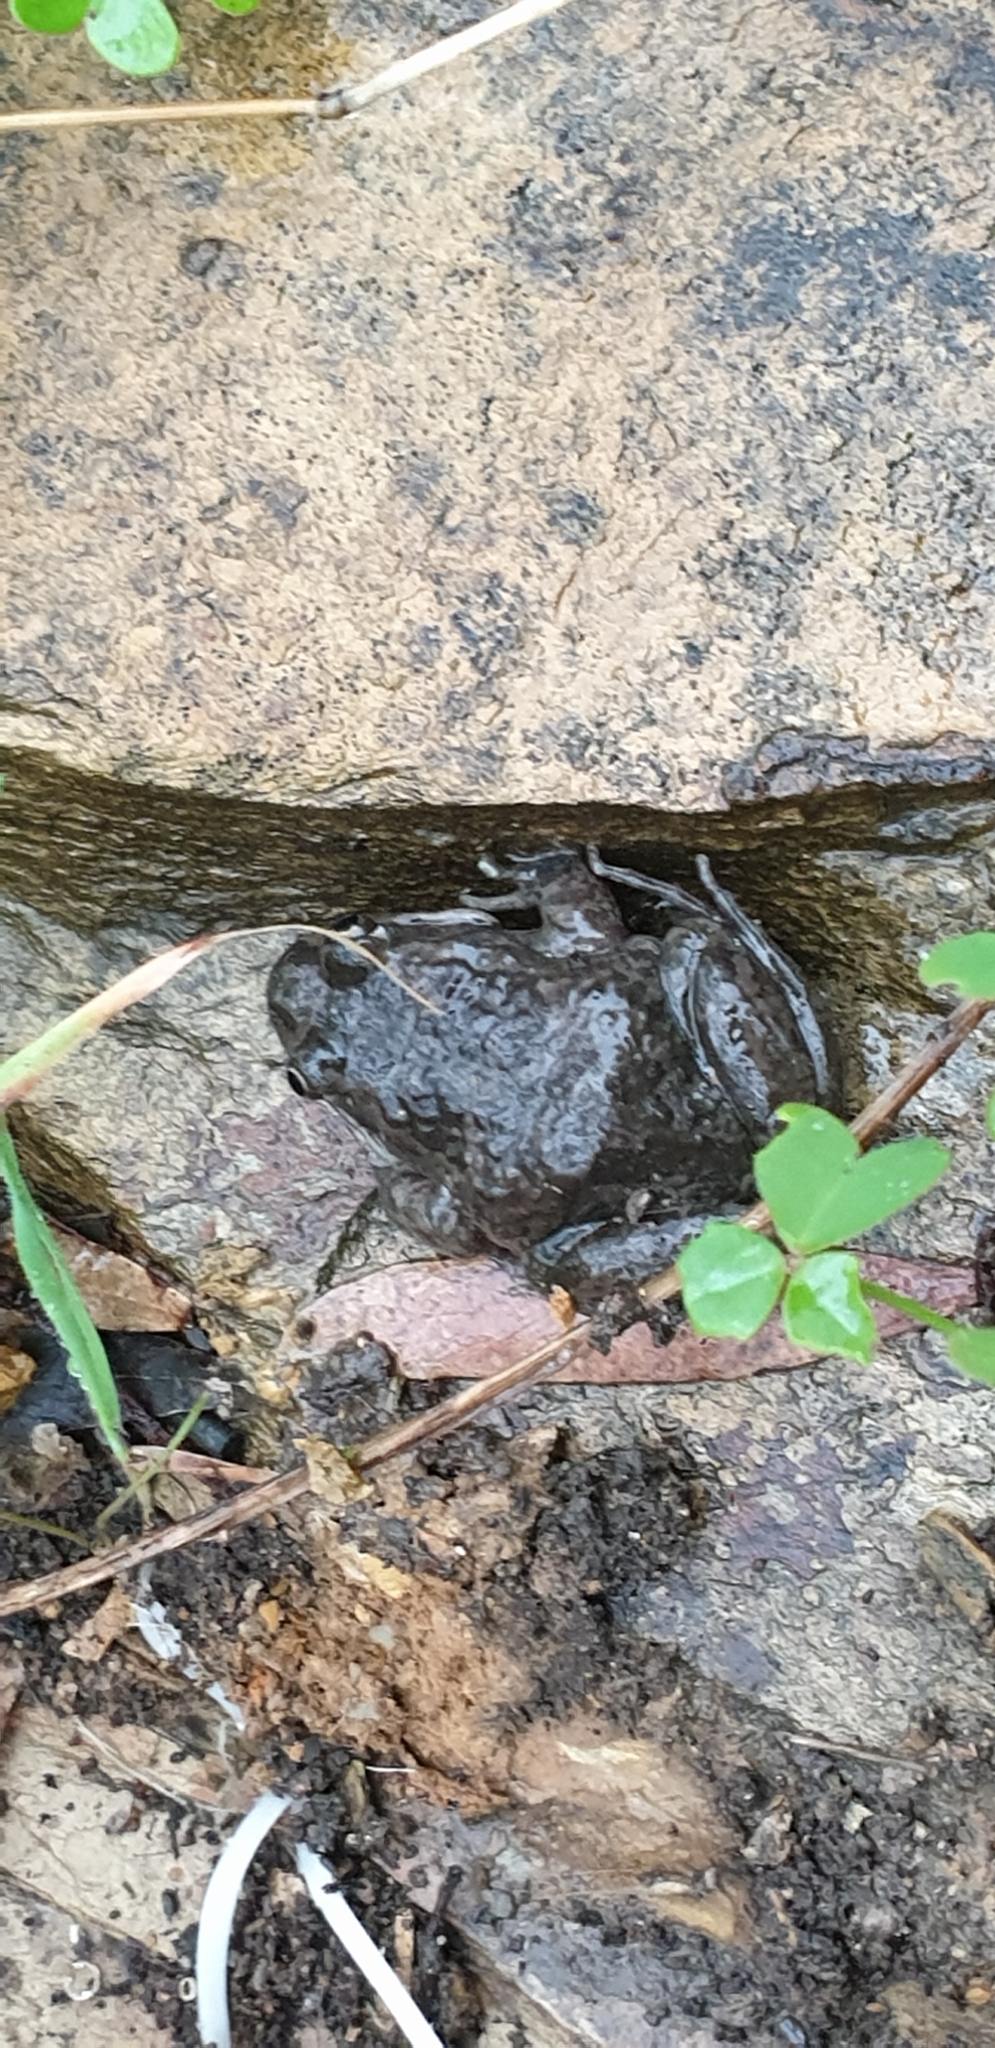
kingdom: Animalia
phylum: Chordata
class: Amphibia
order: Anura
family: Limnodynastidae
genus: Limnodynastes
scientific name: Limnodynastes tasmaniensis
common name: Spotted marsh frog
